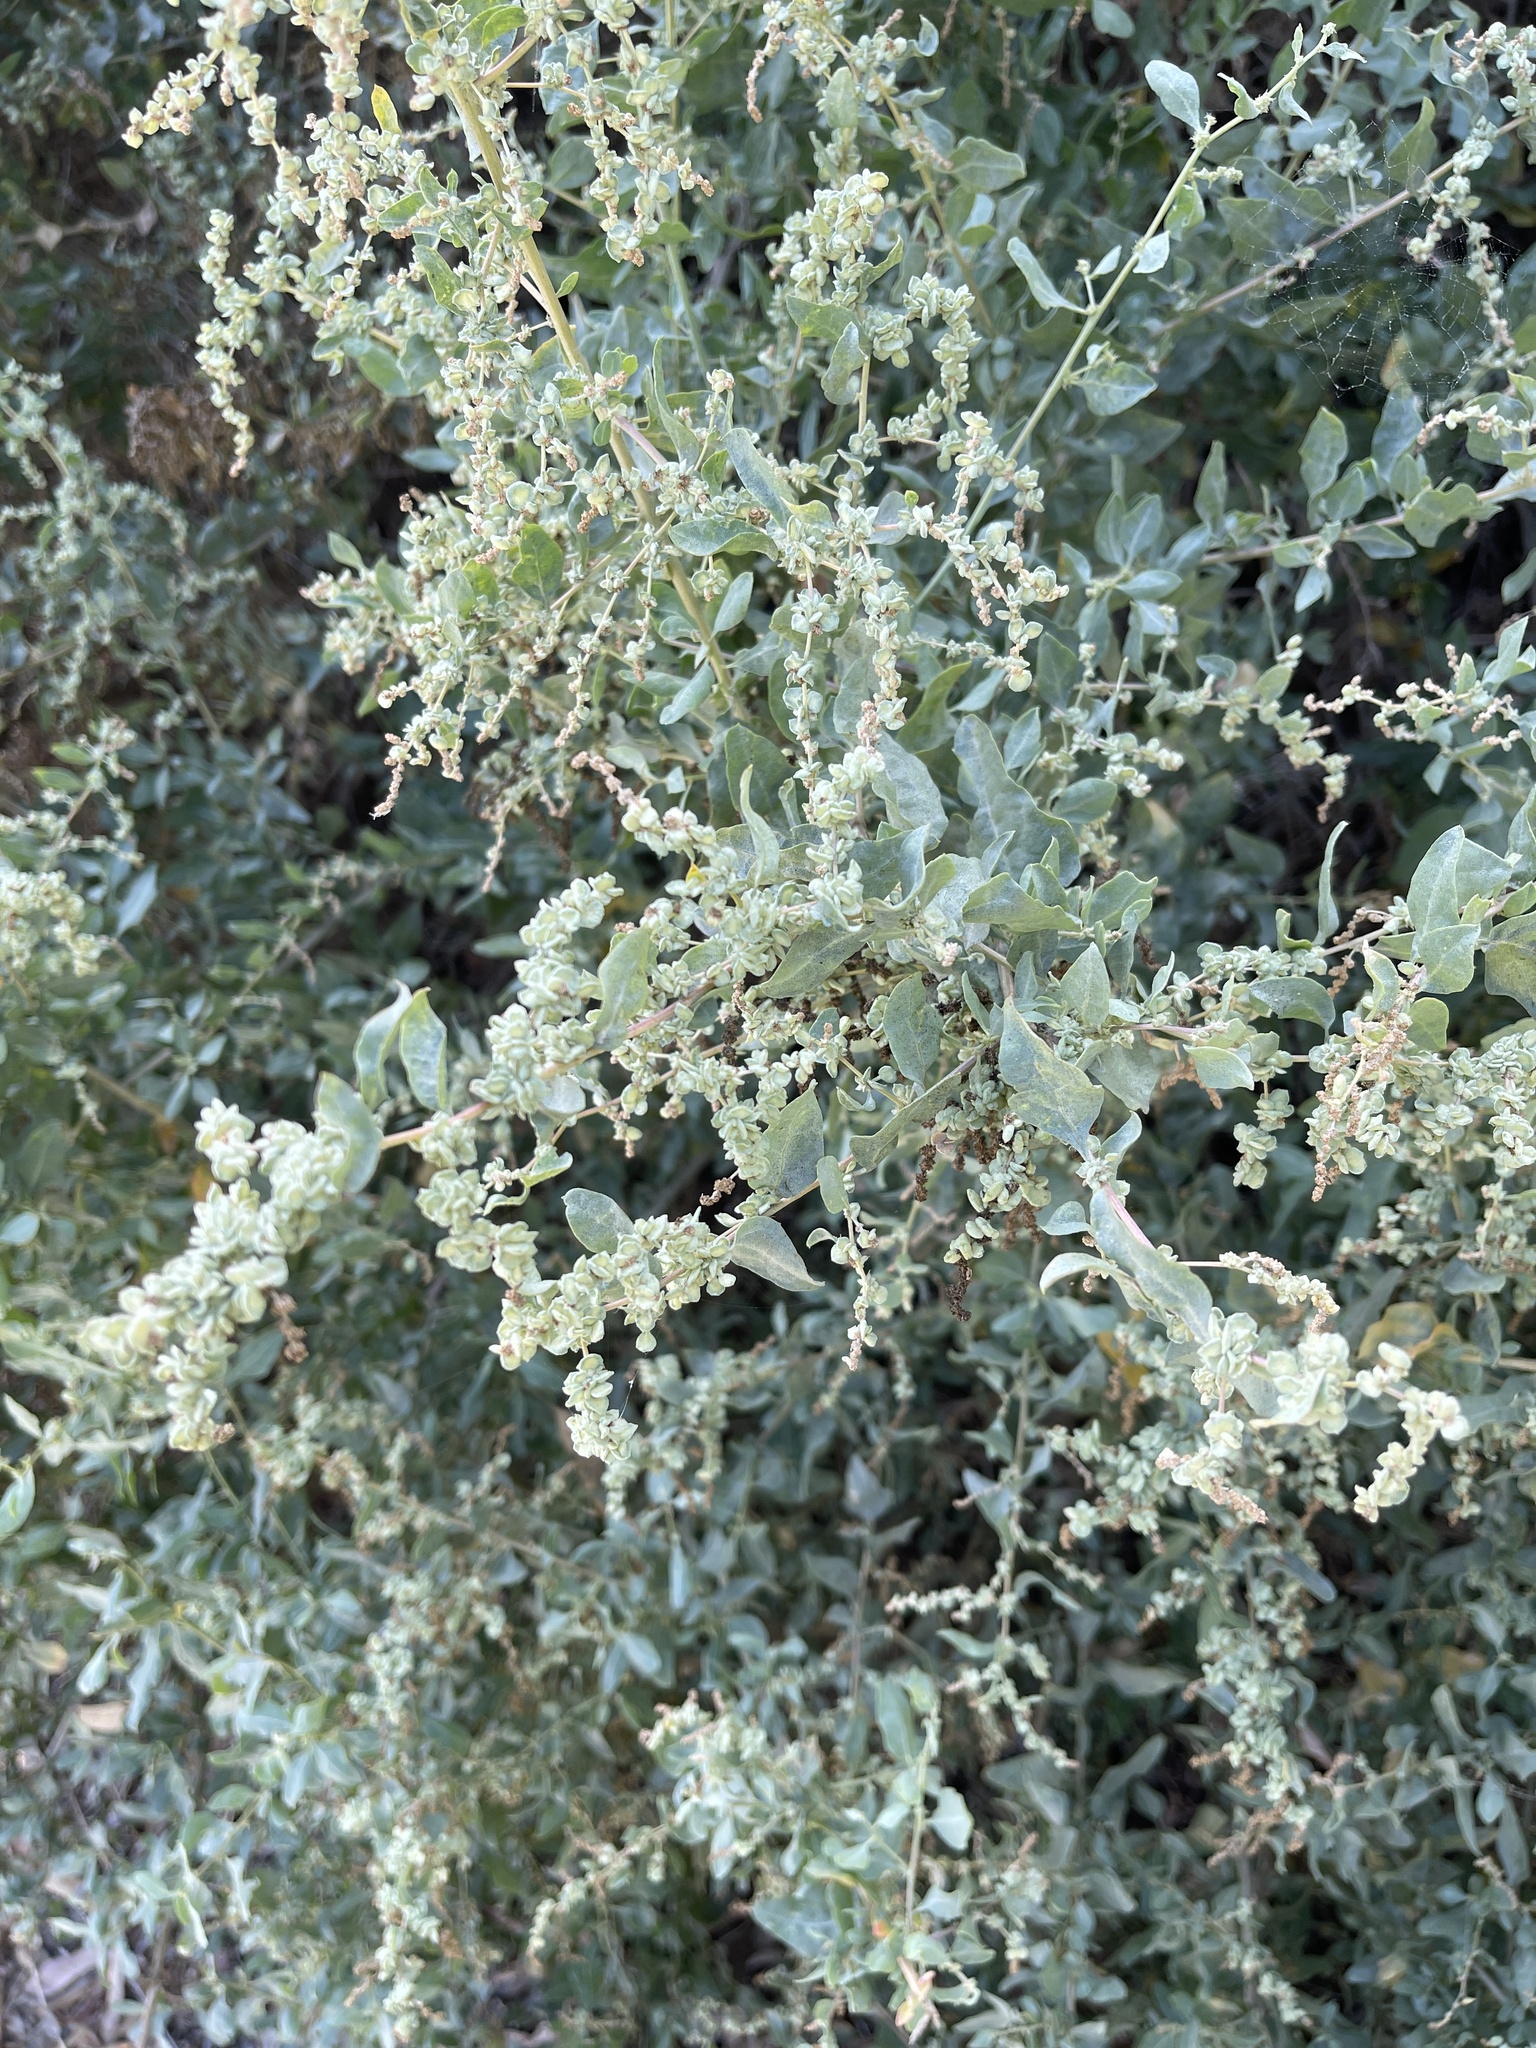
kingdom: Plantae
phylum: Tracheophyta
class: Magnoliopsida
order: Caryophyllales
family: Amaranthaceae
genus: Atriplex
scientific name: Atriplex lentiformis
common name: Big saltbush
